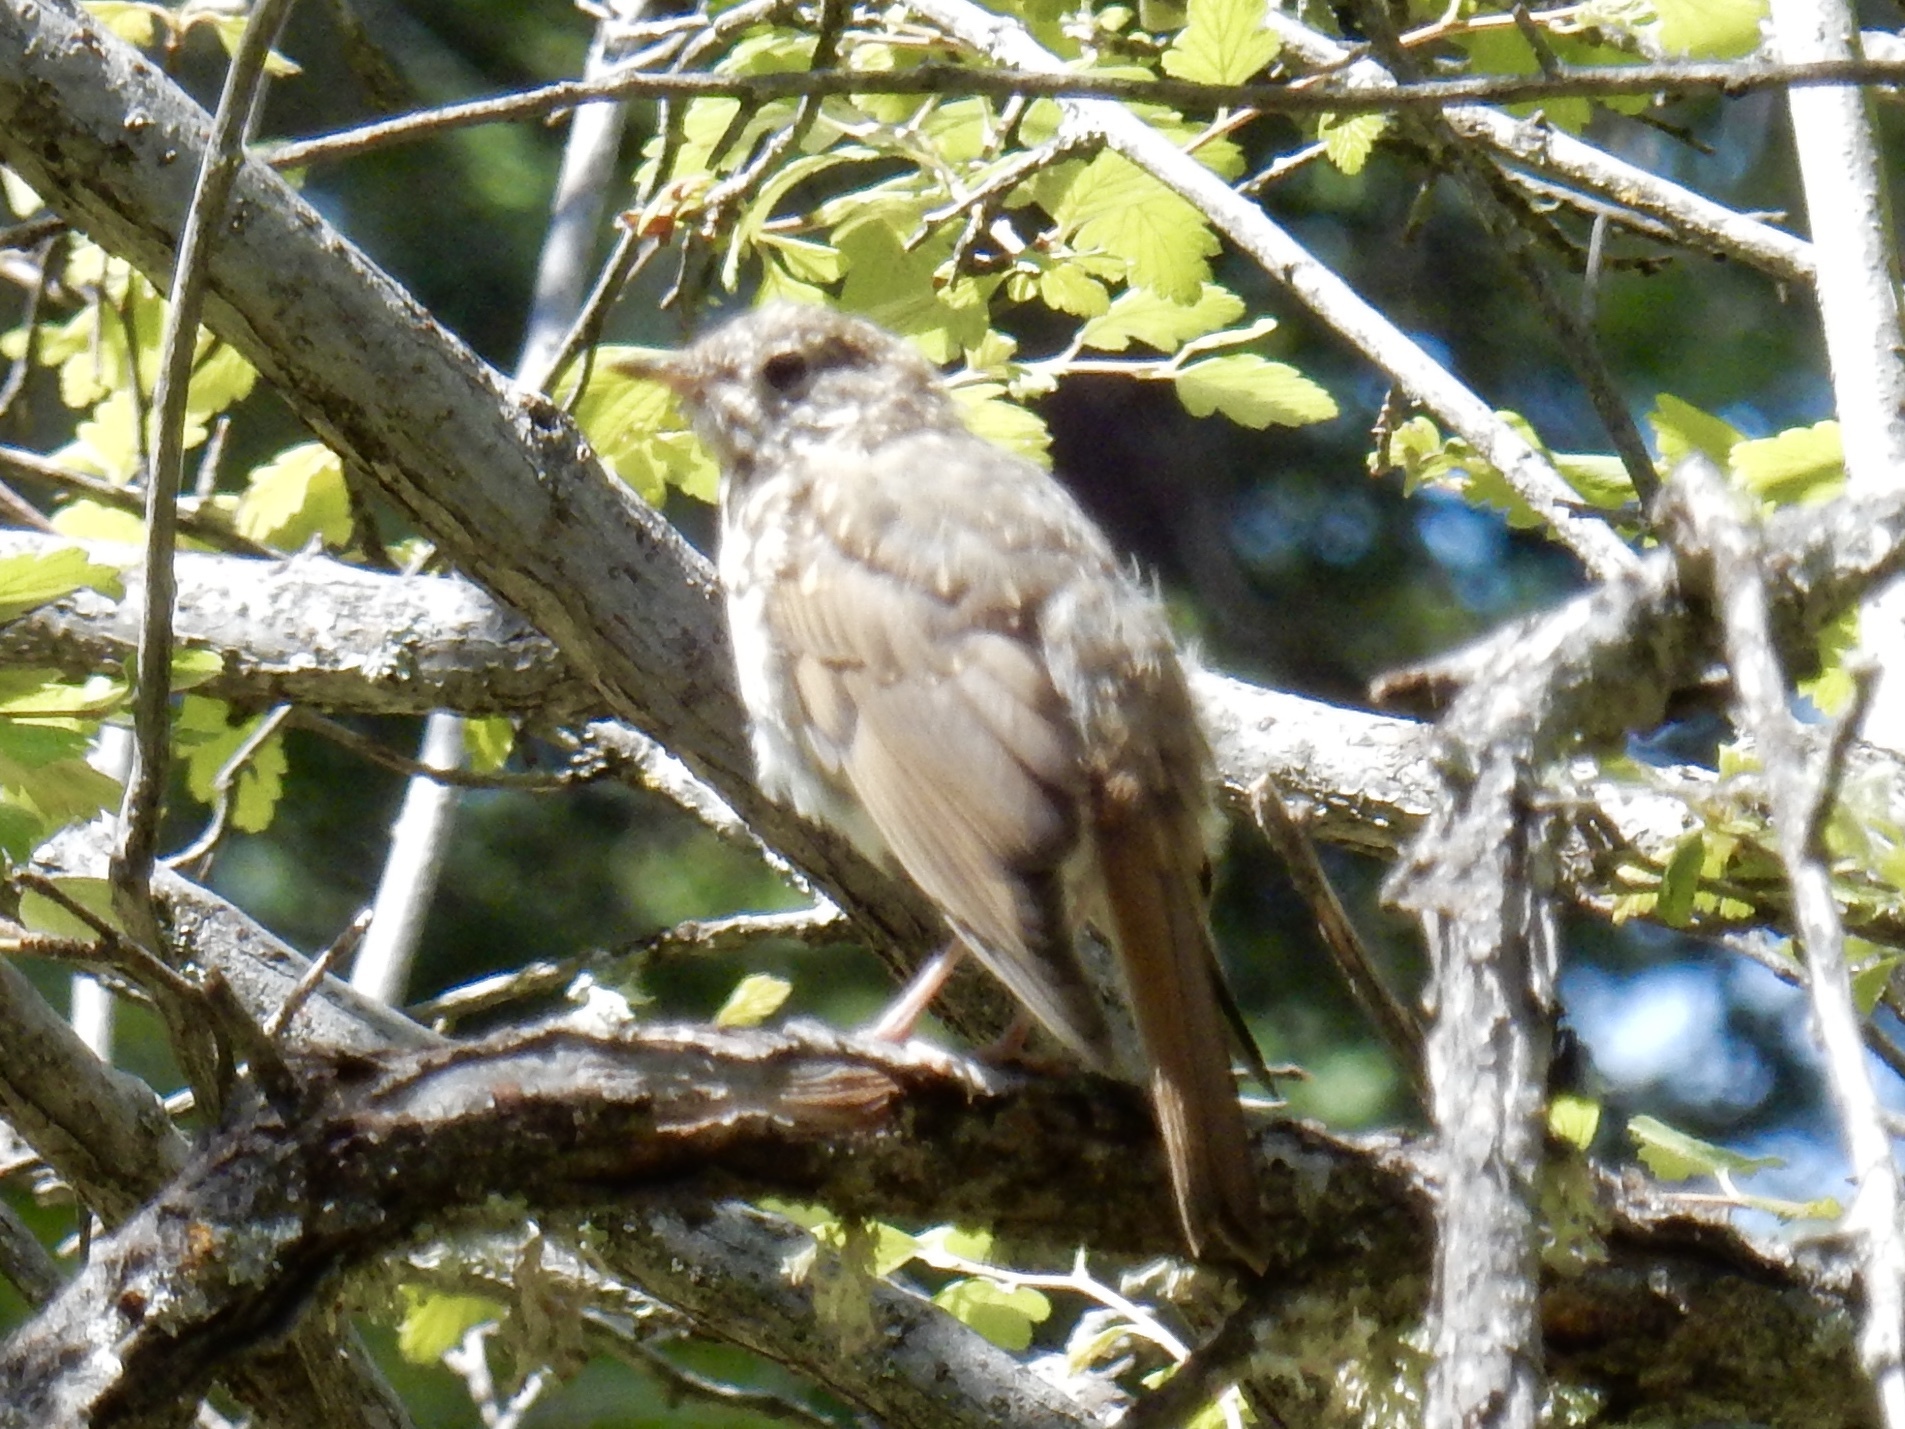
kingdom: Animalia
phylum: Chordata
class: Aves
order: Passeriformes
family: Turdidae
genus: Catharus
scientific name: Catharus guttatus
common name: Hermit thrush
